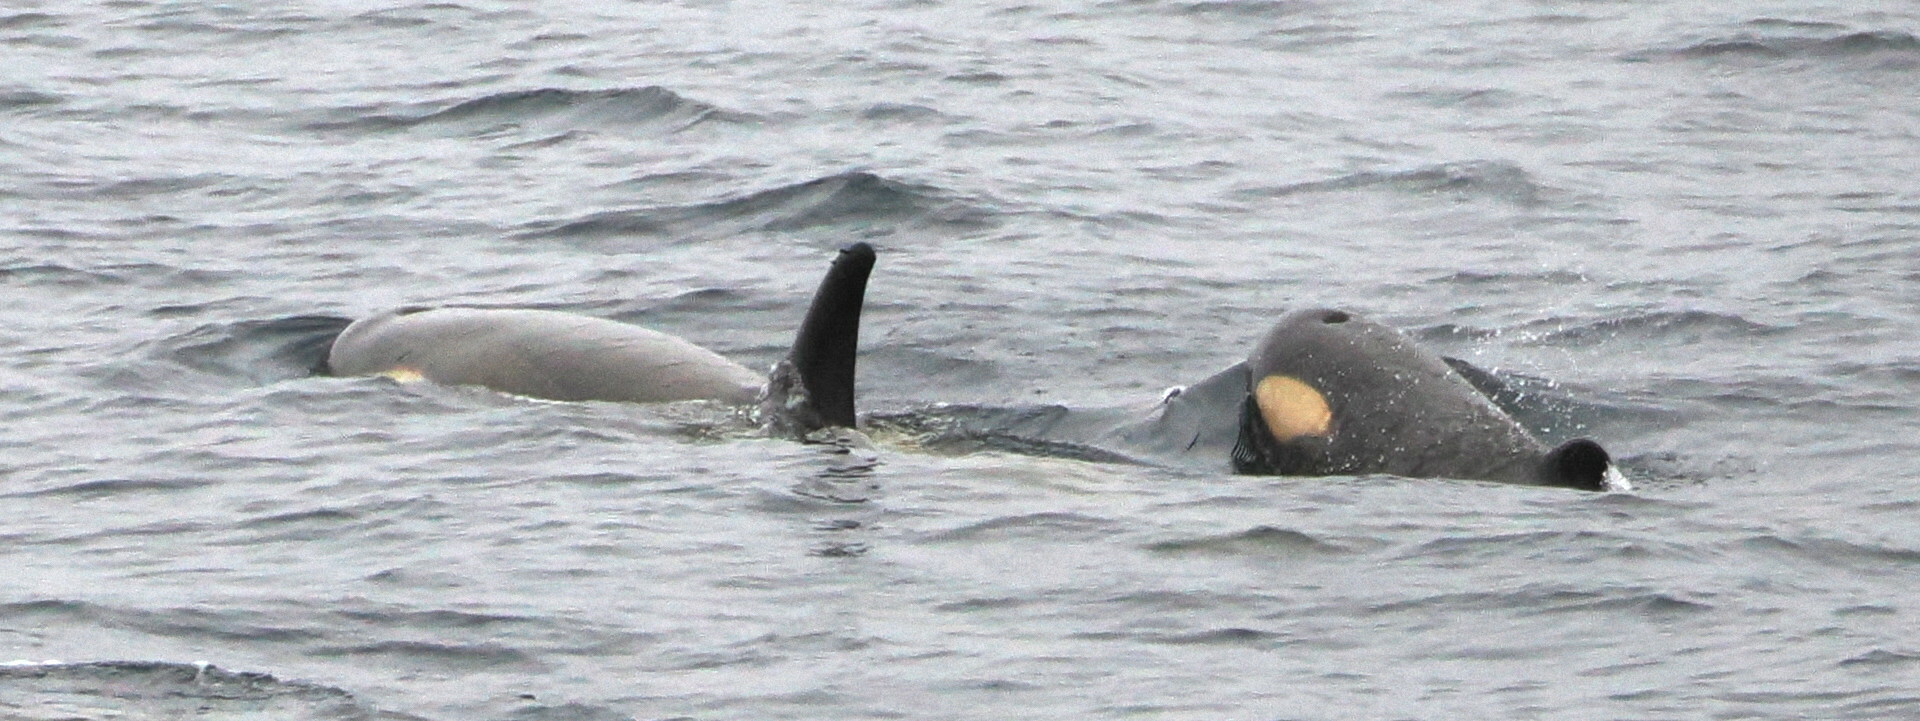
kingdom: Animalia
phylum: Chordata
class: Mammalia
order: Cetacea
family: Delphinidae
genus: Orcinus
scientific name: Orcinus orca
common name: Killer whale
